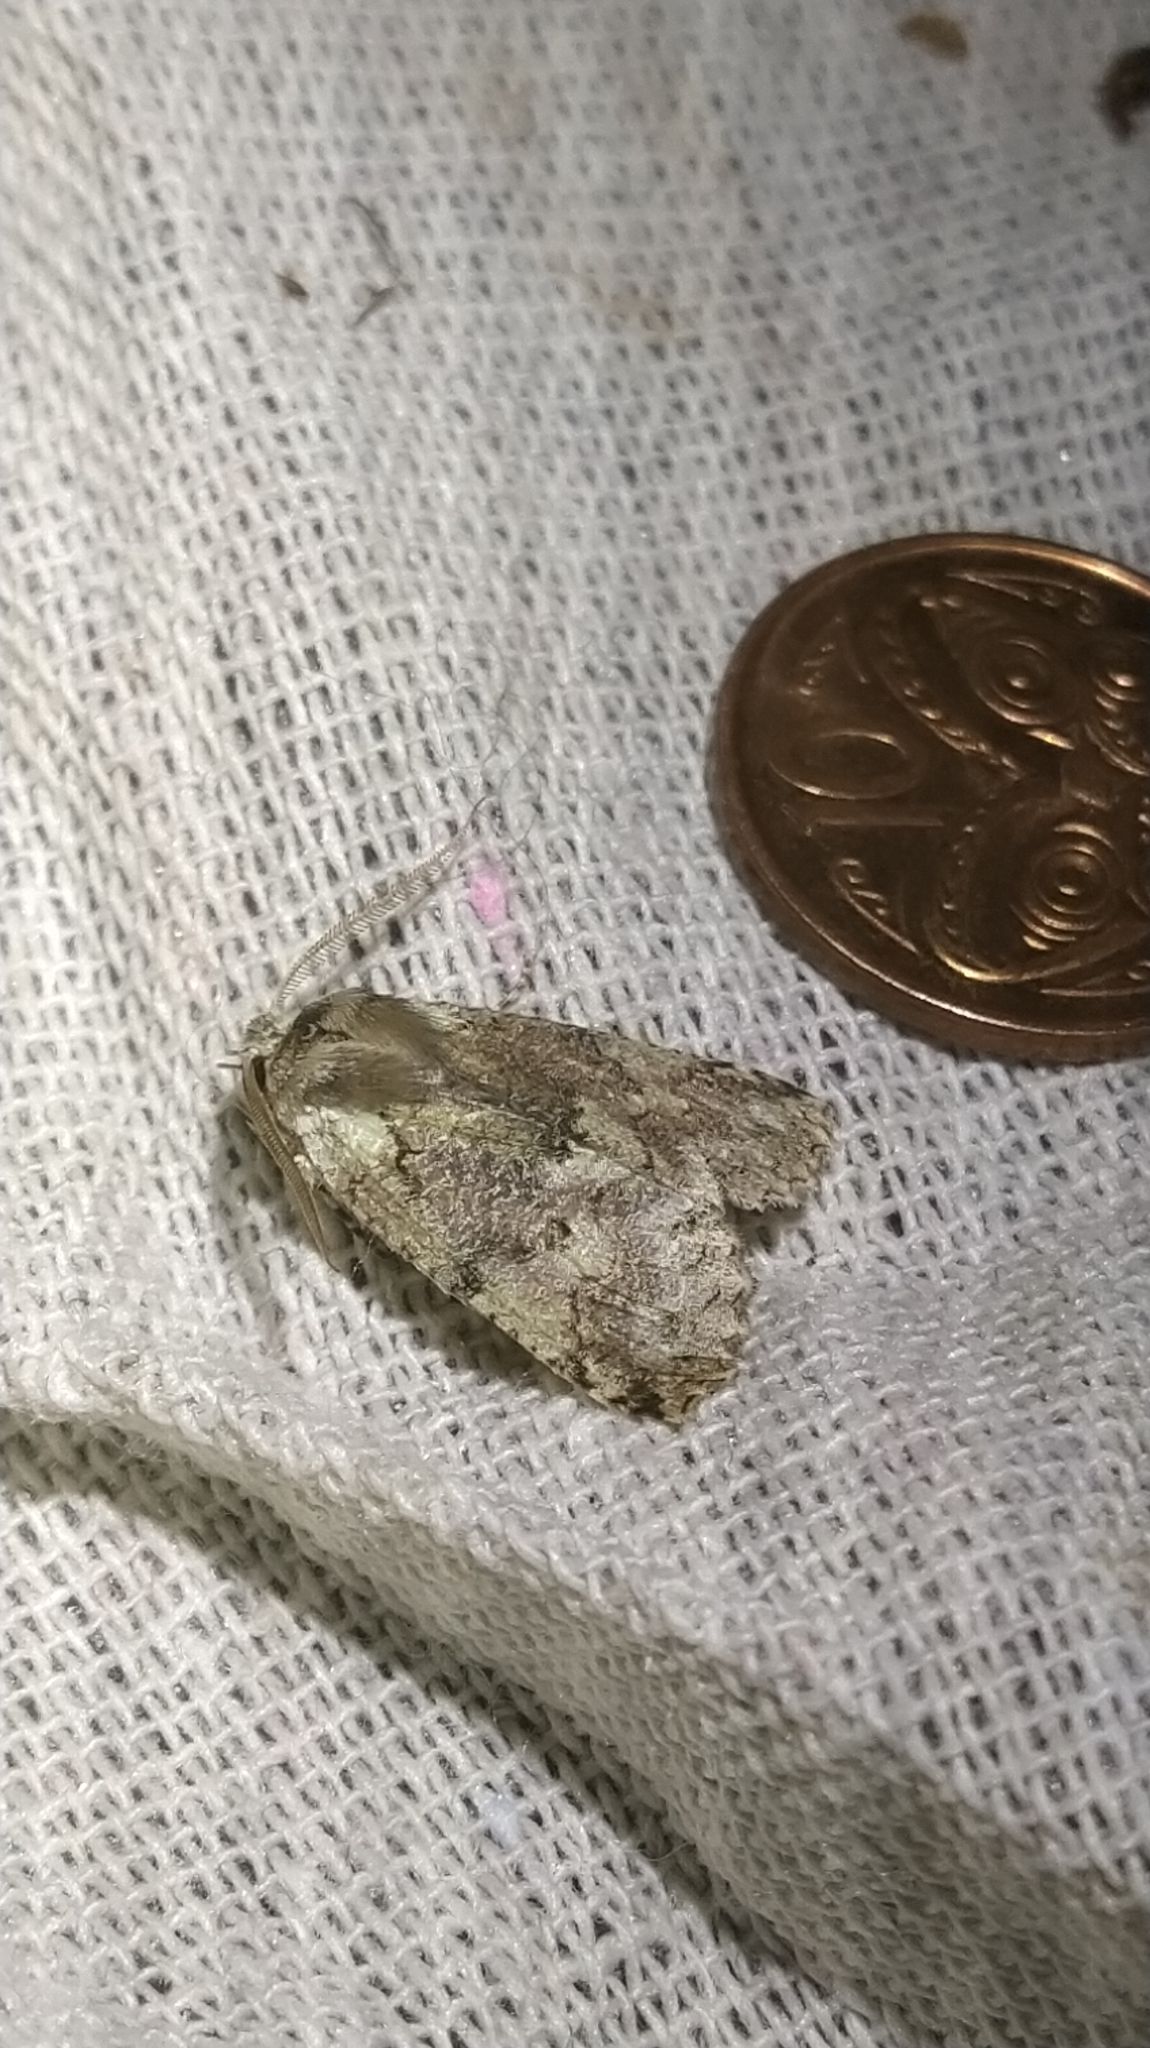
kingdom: Animalia
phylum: Arthropoda
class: Insecta
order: Lepidoptera
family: Geometridae
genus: Declana
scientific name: Declana floccosa
